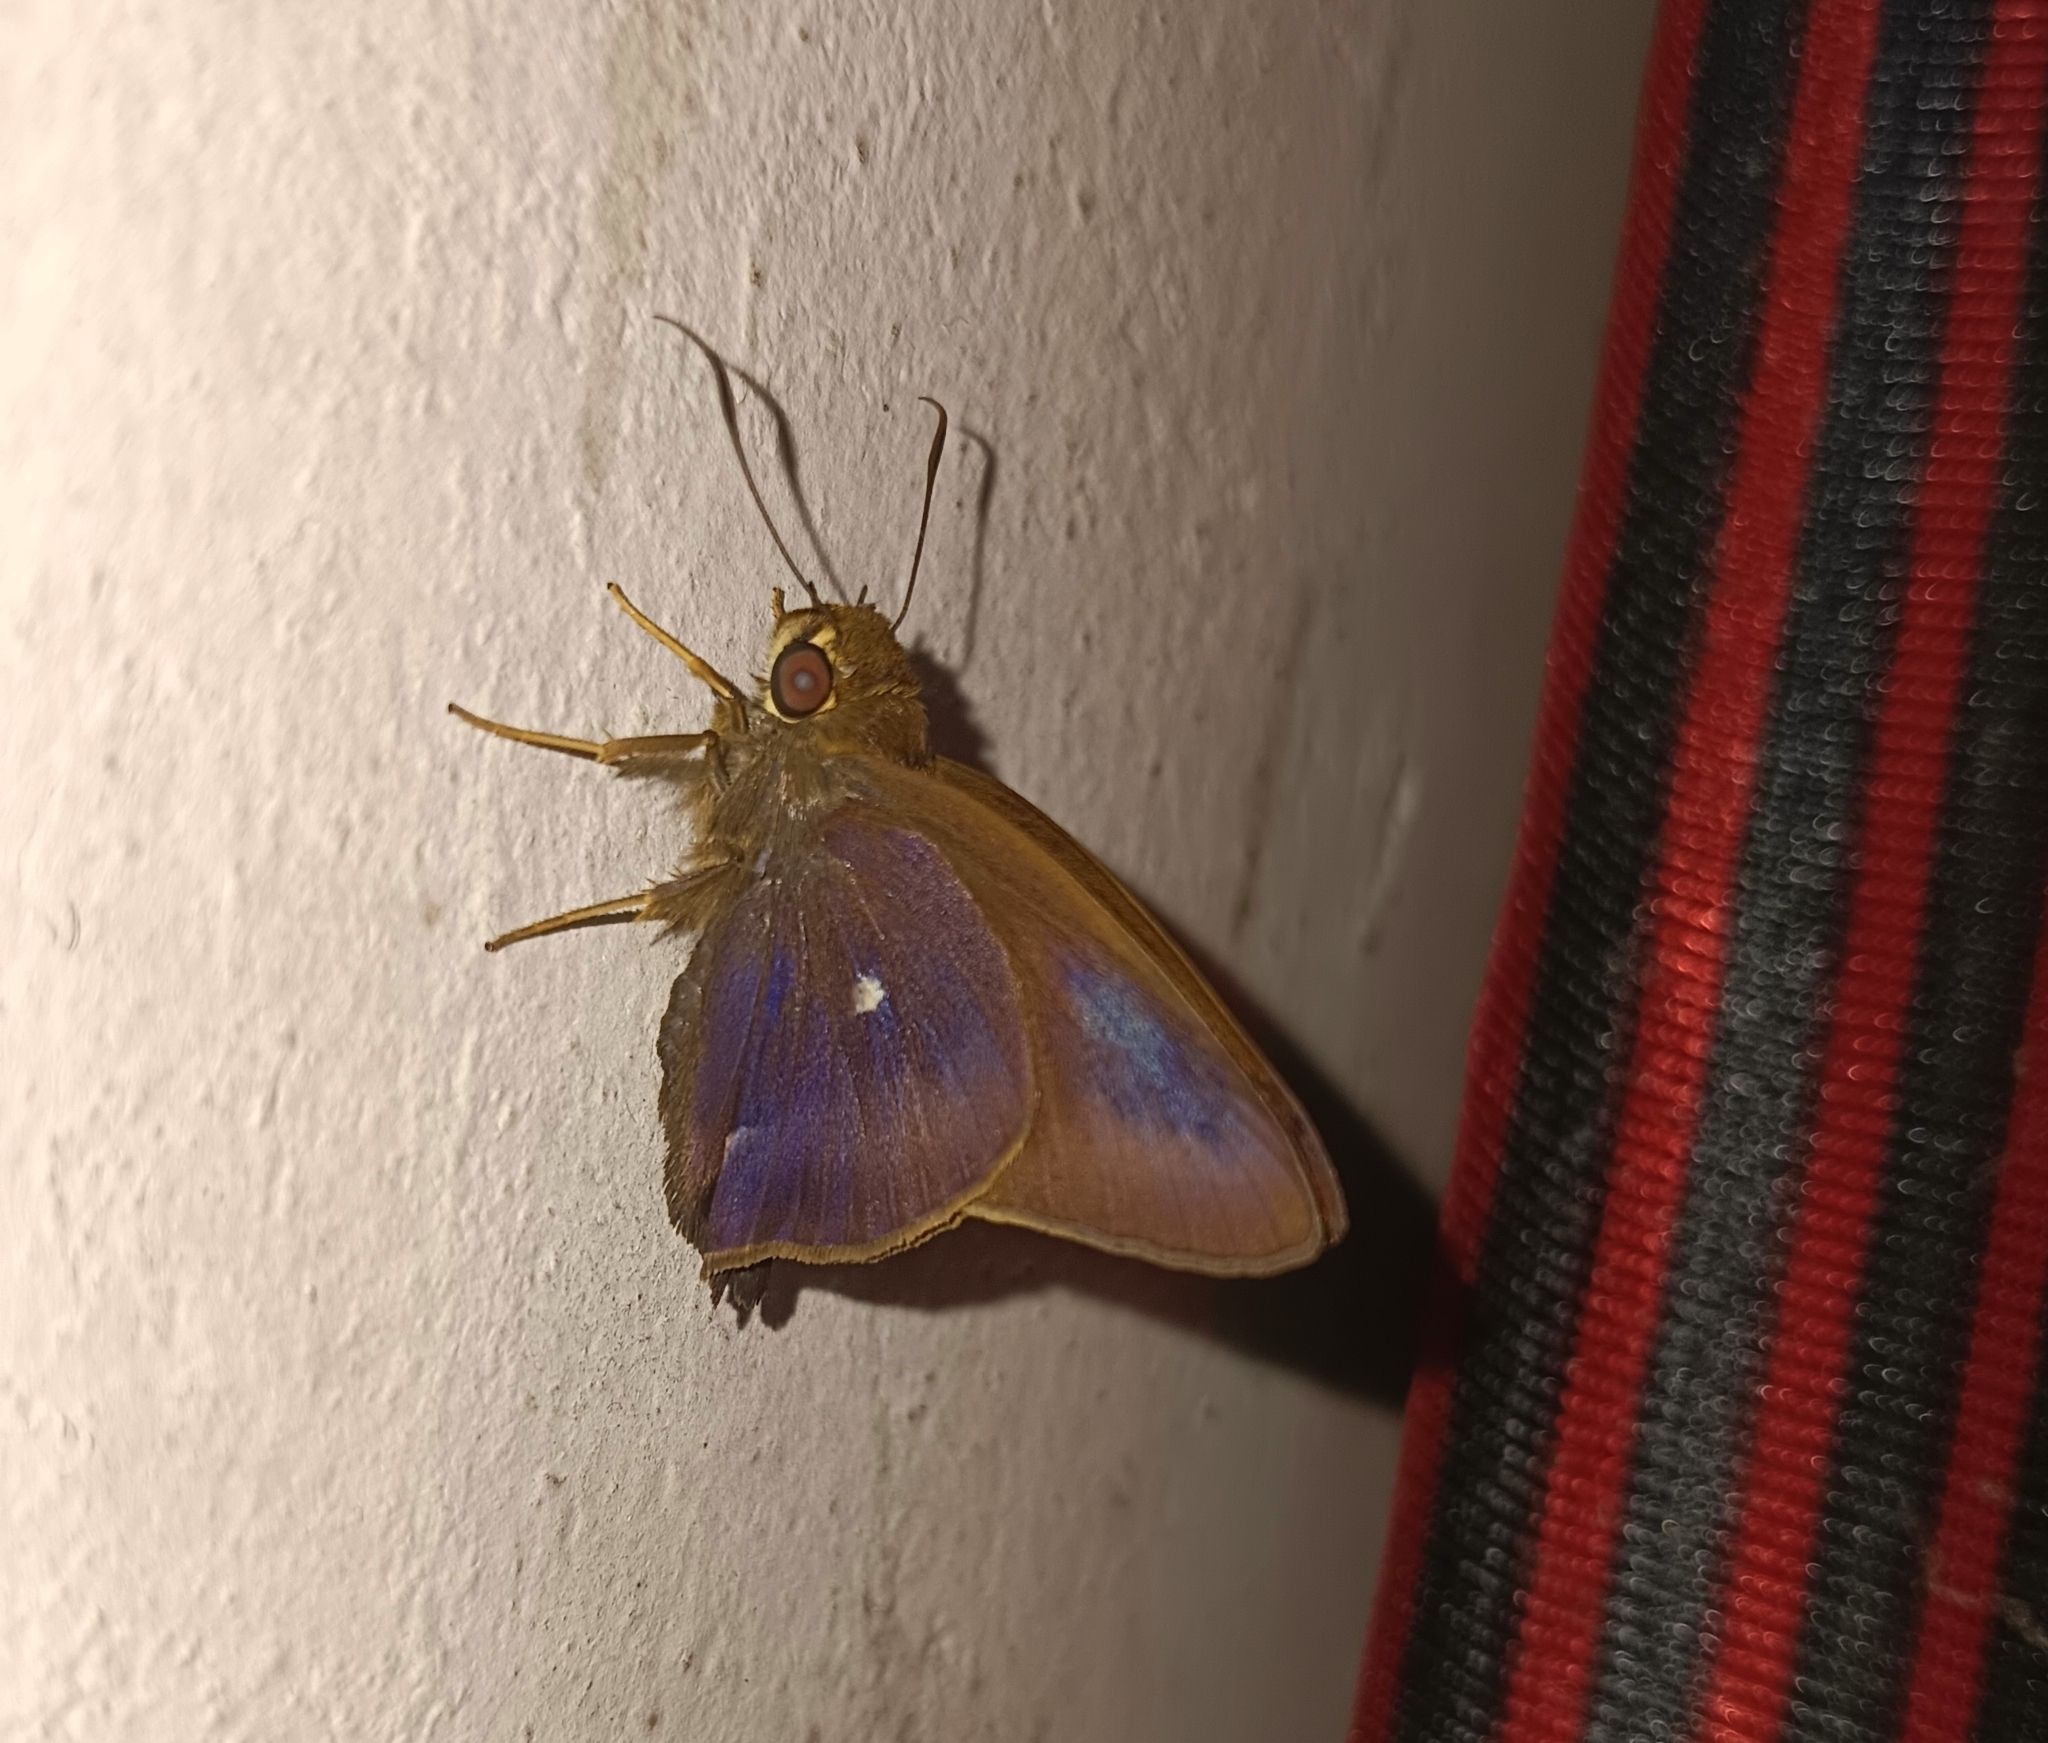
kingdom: Animalia
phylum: Arthropoda
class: Insecta
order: Lepidoptera
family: Hesperiidae
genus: Hasora
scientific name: Hasora badra
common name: Common awl
